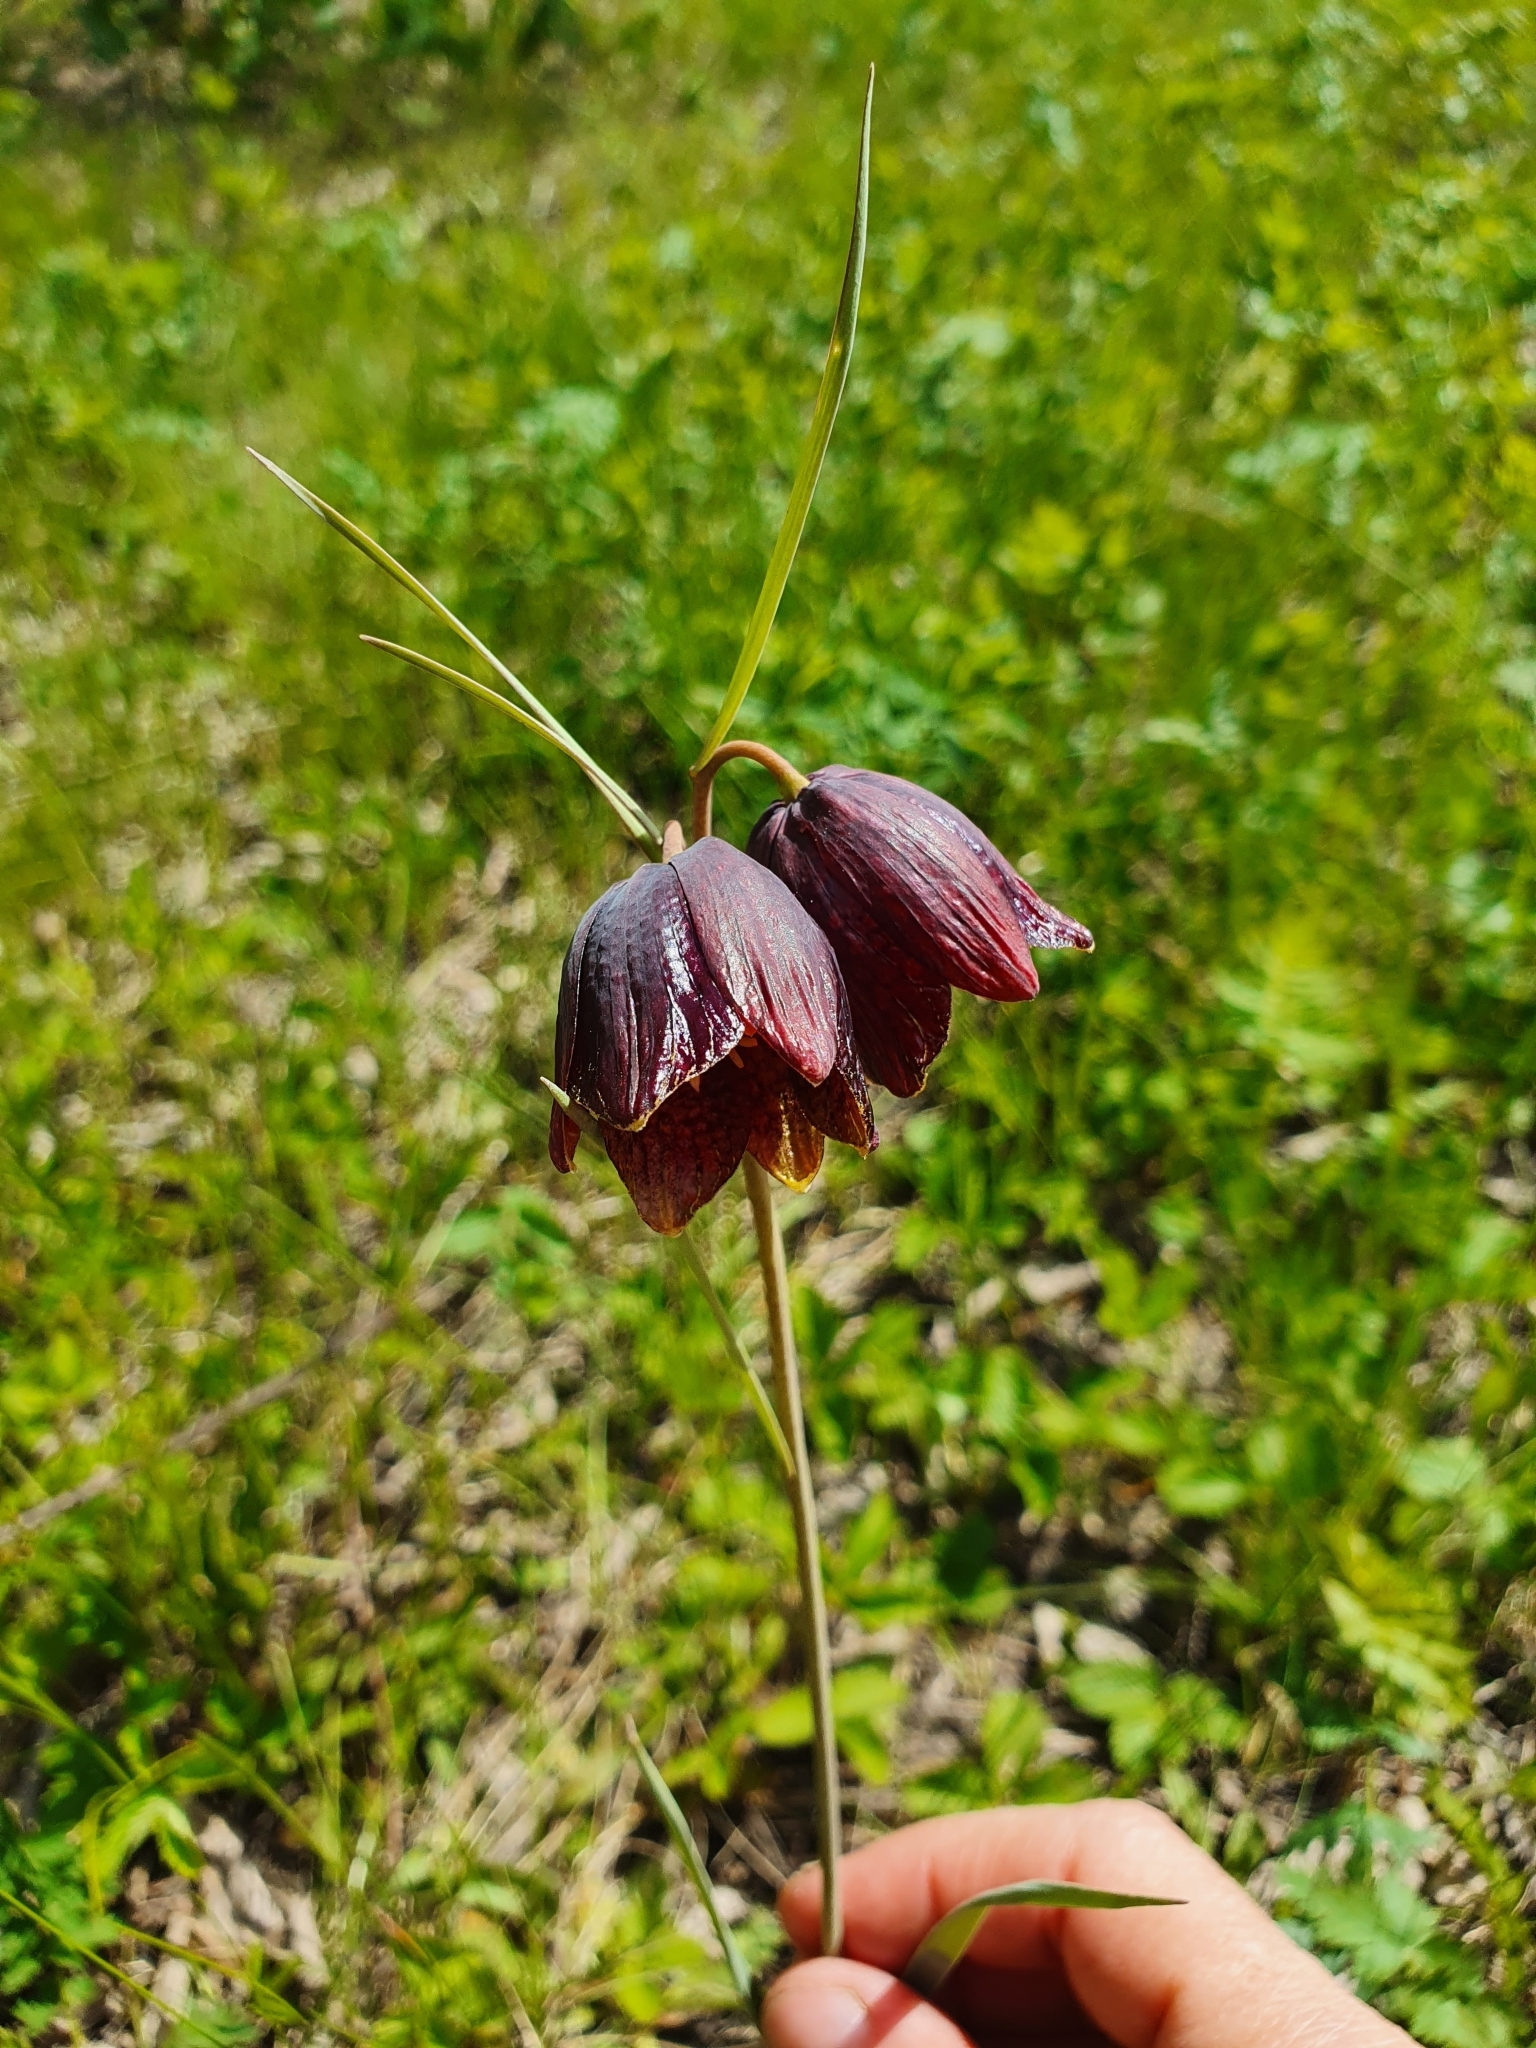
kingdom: Plantae
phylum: Tracheophyta
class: Liliopsida
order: Liliales
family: Liliaceae
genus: Fritillaria
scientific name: Fritillaria meleagroides
